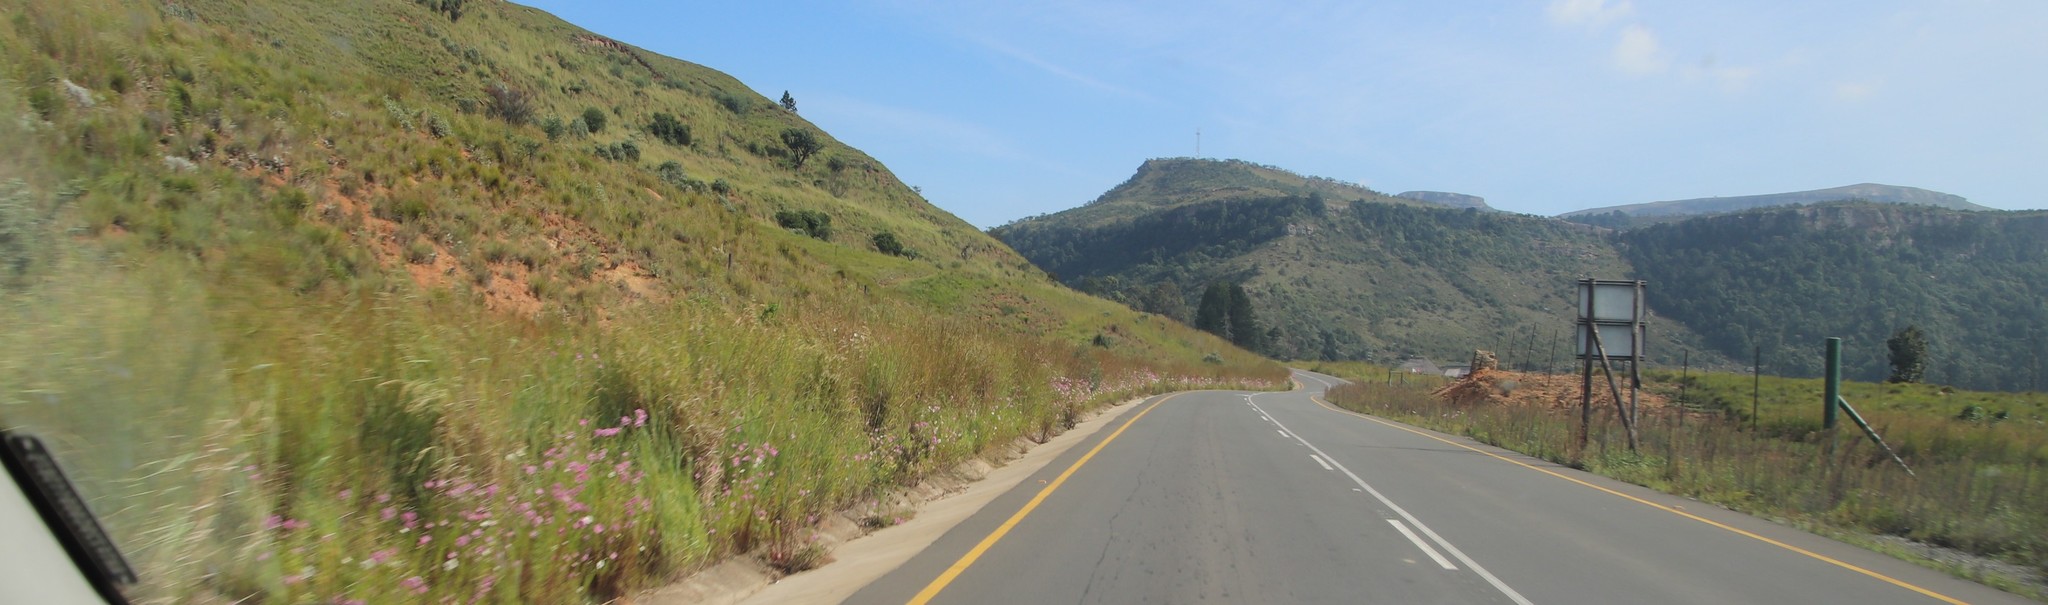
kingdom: Plantae
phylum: Tracheophyta
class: Magnoliopsida
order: Asterales
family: Asteraceae
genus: Cosmos
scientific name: Cosmos bipinnatus
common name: Garden cosmos
